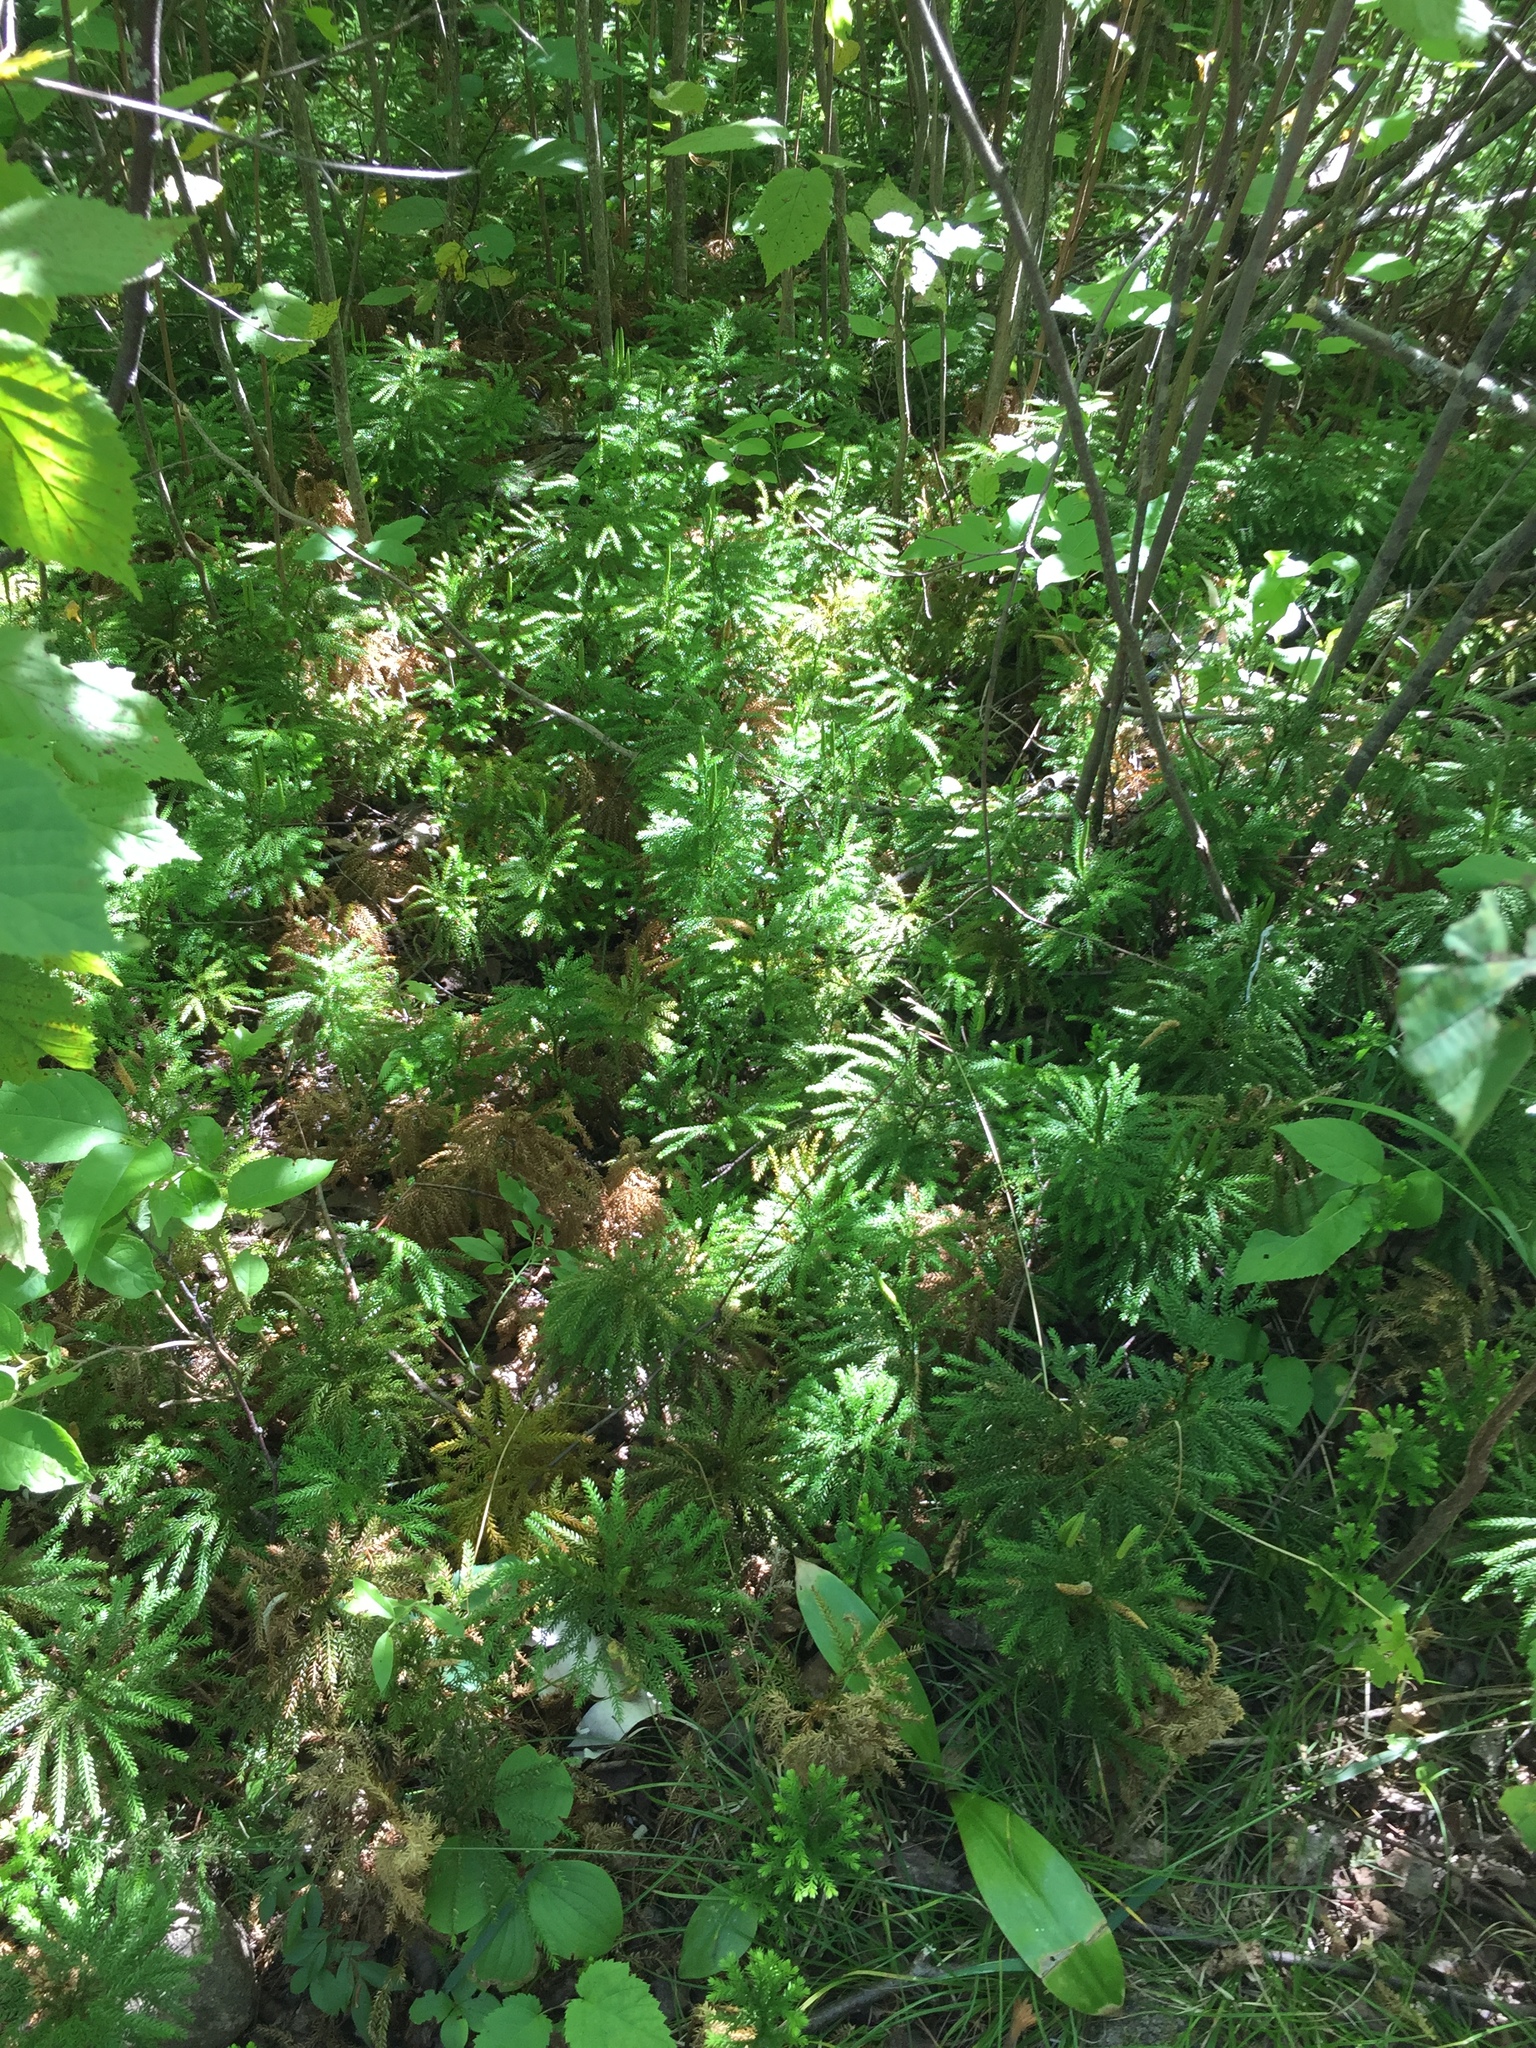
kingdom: Plantae
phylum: Tracheophyta
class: Lycopodiopsida
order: Lycopodiales
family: Lycopodiaceae
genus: Dendrolycopodium
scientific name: Dendrolycopodium dendroideum
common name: Northern tree-clubmoss
